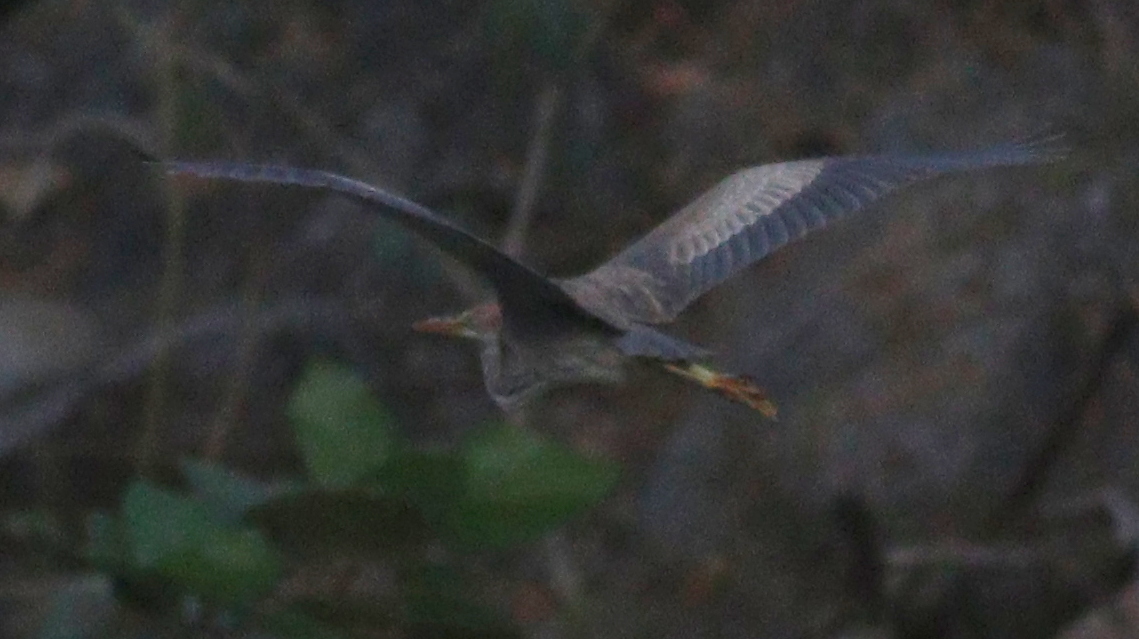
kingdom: Animalia
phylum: Chordata
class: Aves
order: Pelecaniformes
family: Ardeidae
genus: Ardea
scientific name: Ardea purpurea
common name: Purple heron
